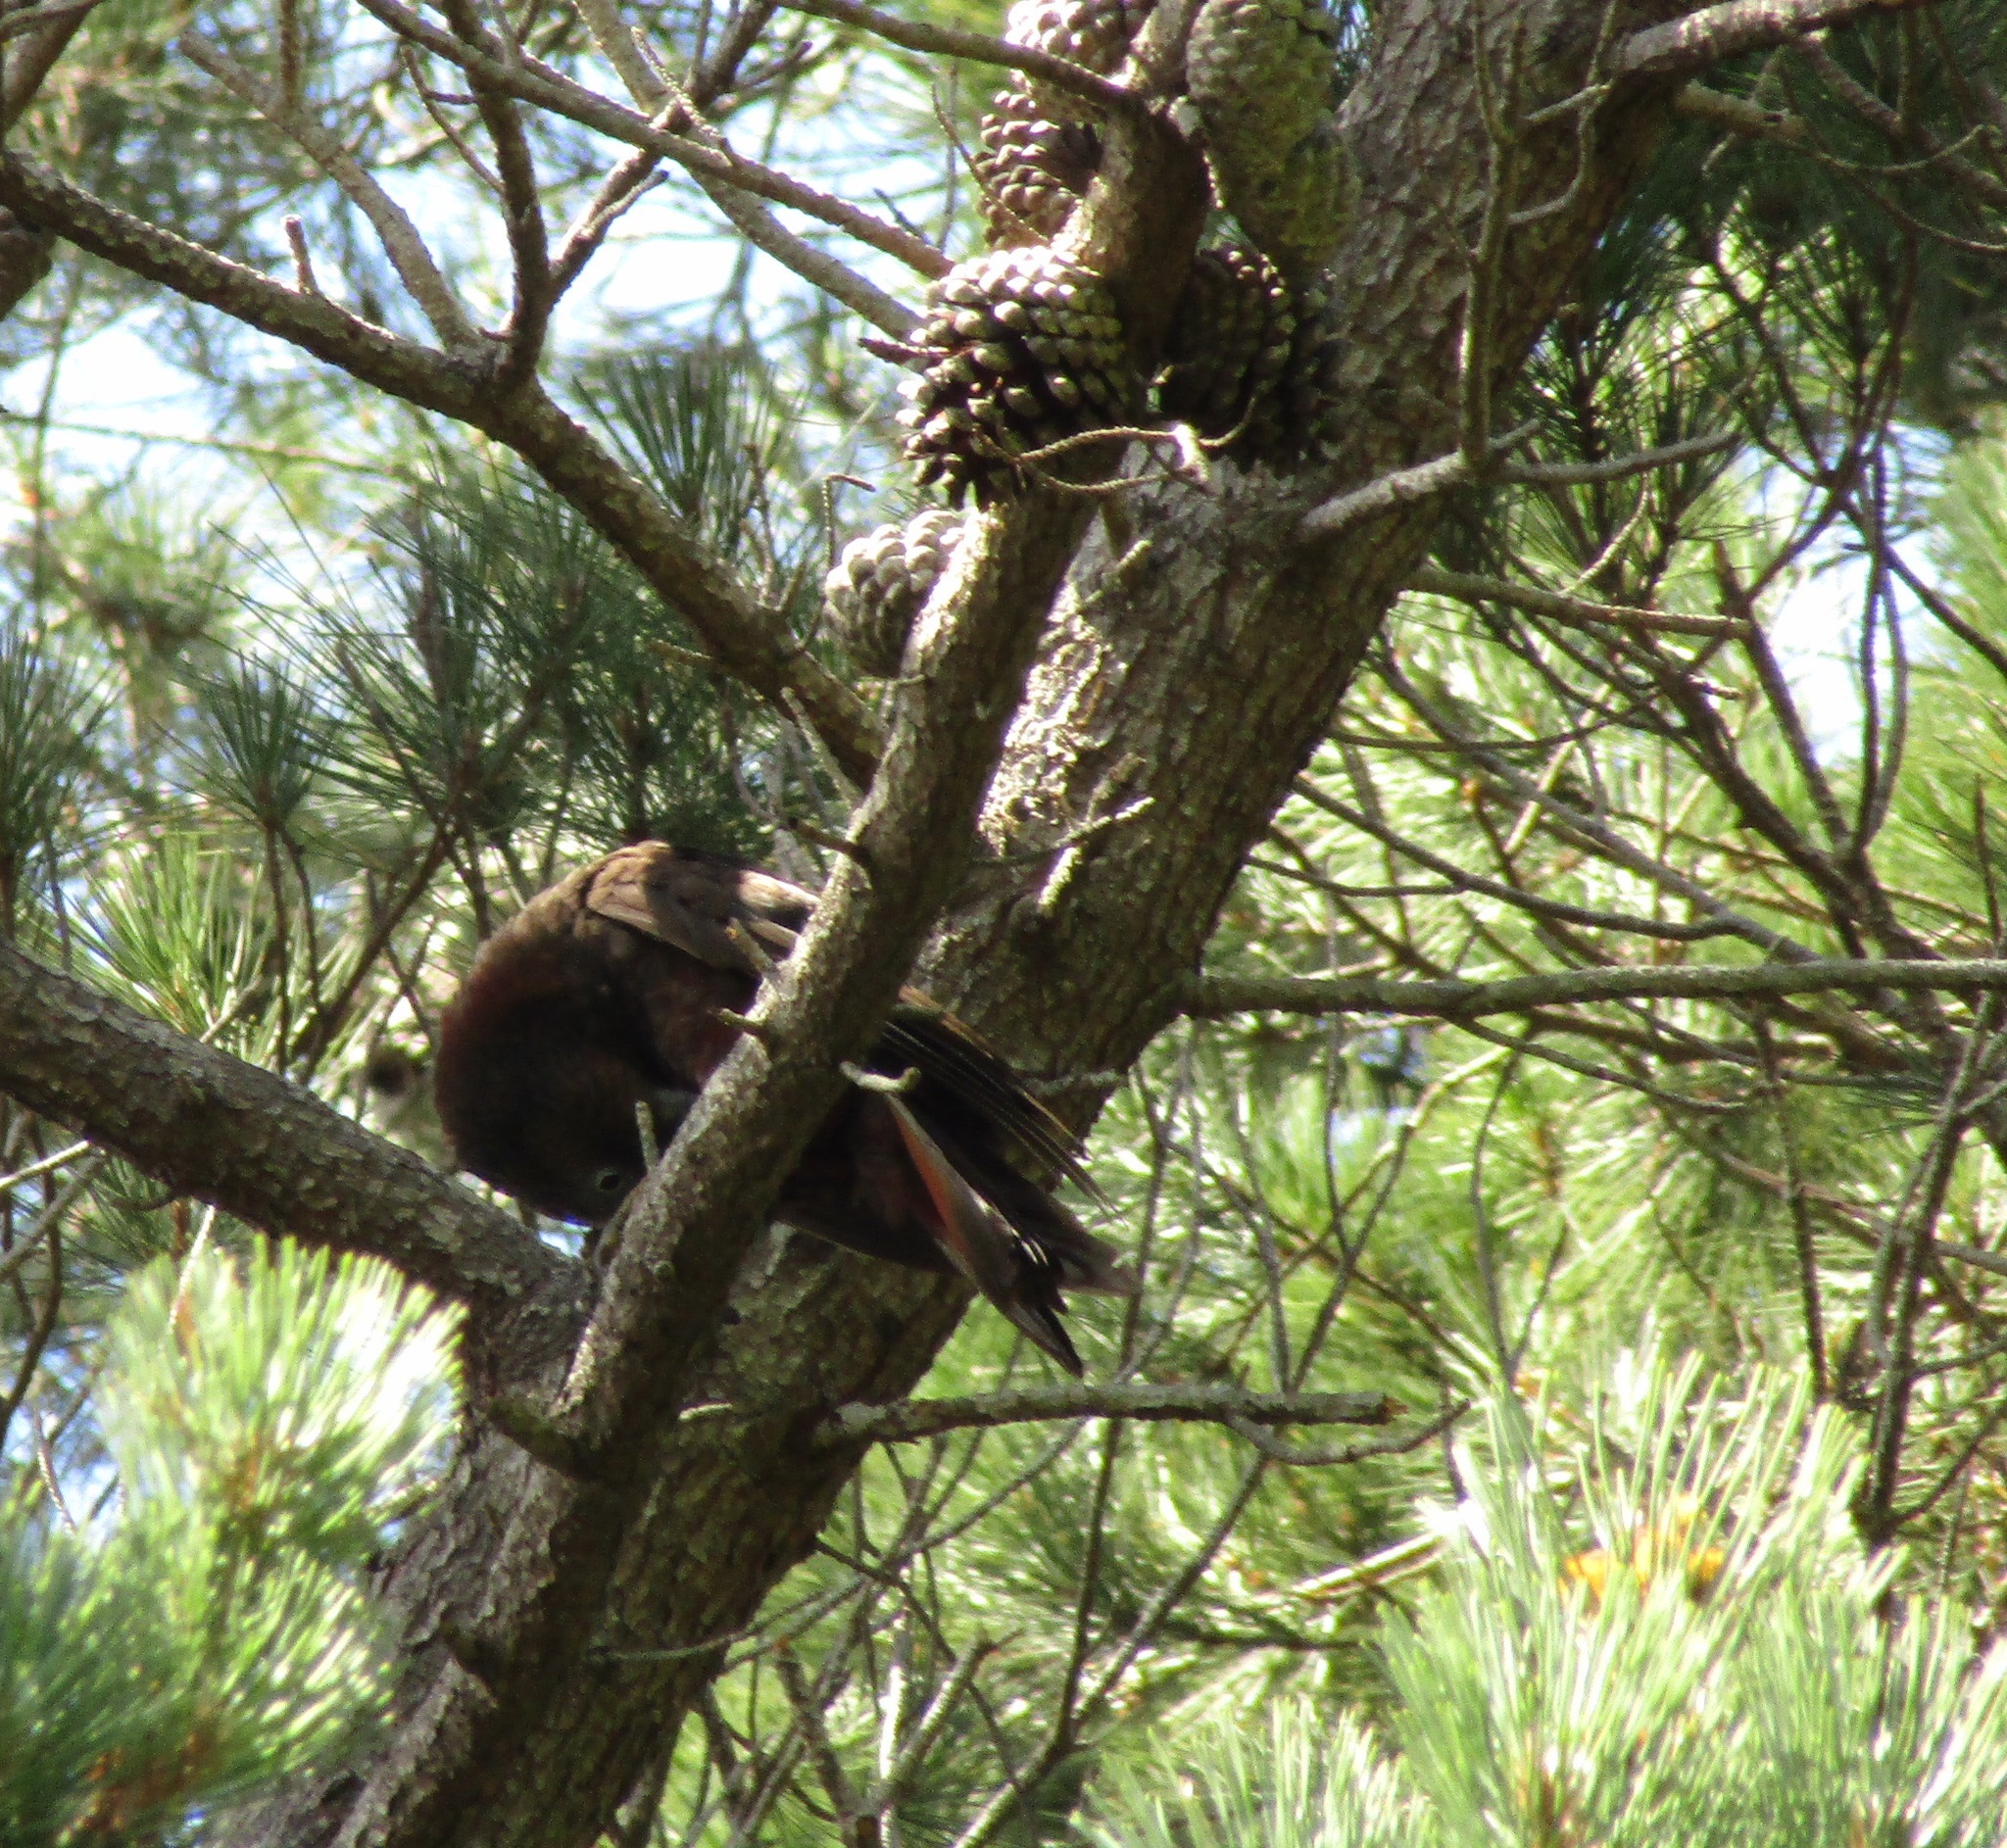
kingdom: Animalia
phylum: Chordata
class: Aves
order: Psittaciformes
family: Psittacidae
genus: Nestor
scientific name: Nestor meridionalis
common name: New zealand kaka
